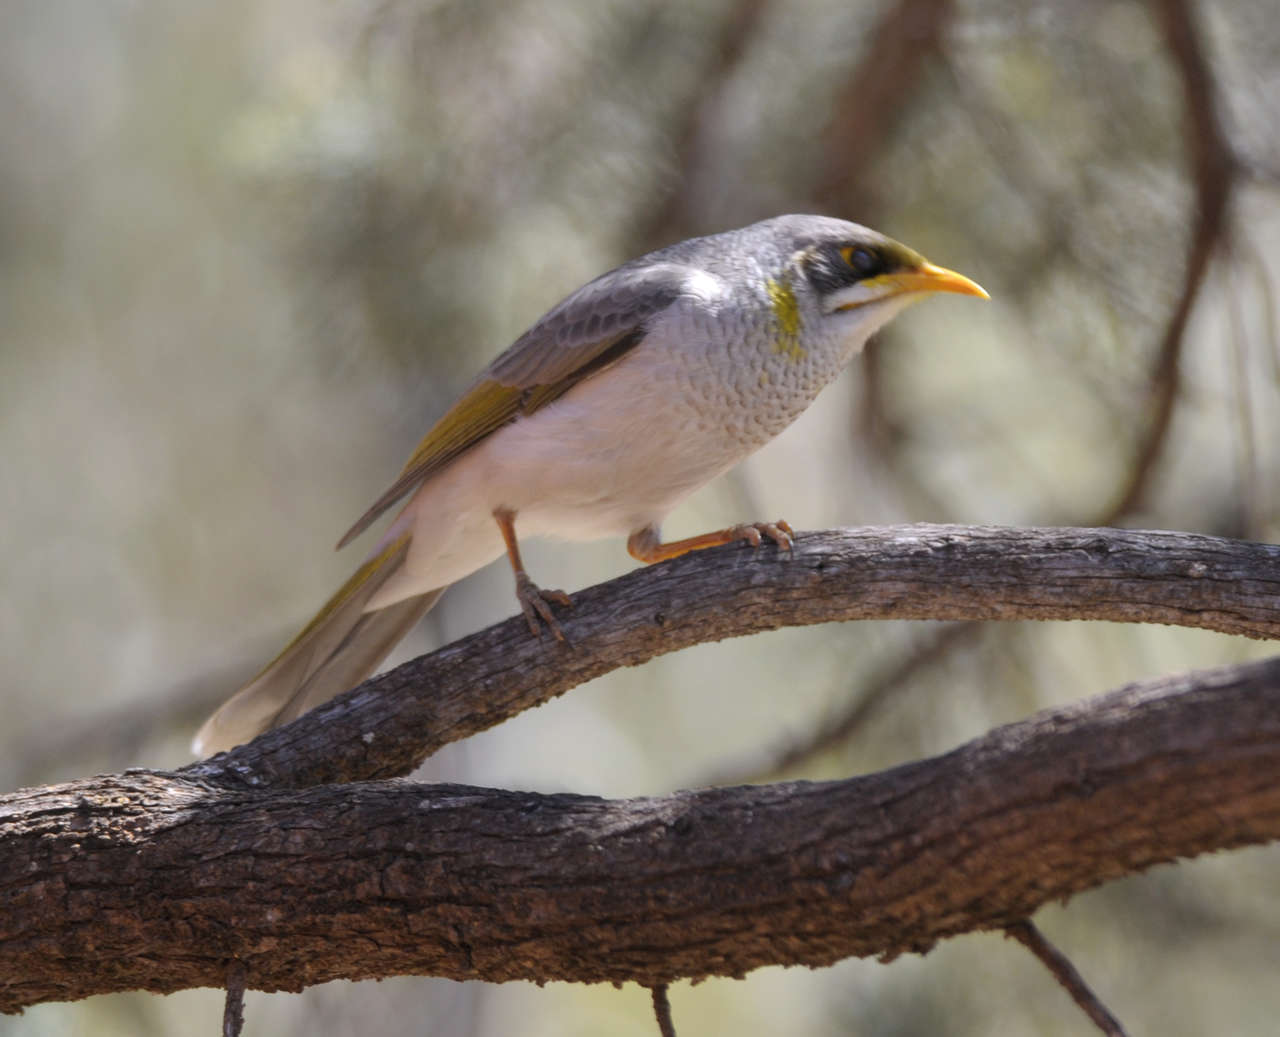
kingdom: Animalia
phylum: Chordata
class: Aves
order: Passeriformes
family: Meliphagidae
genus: Manorina
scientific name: Manorina flavigula
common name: Yellow-throated miner
